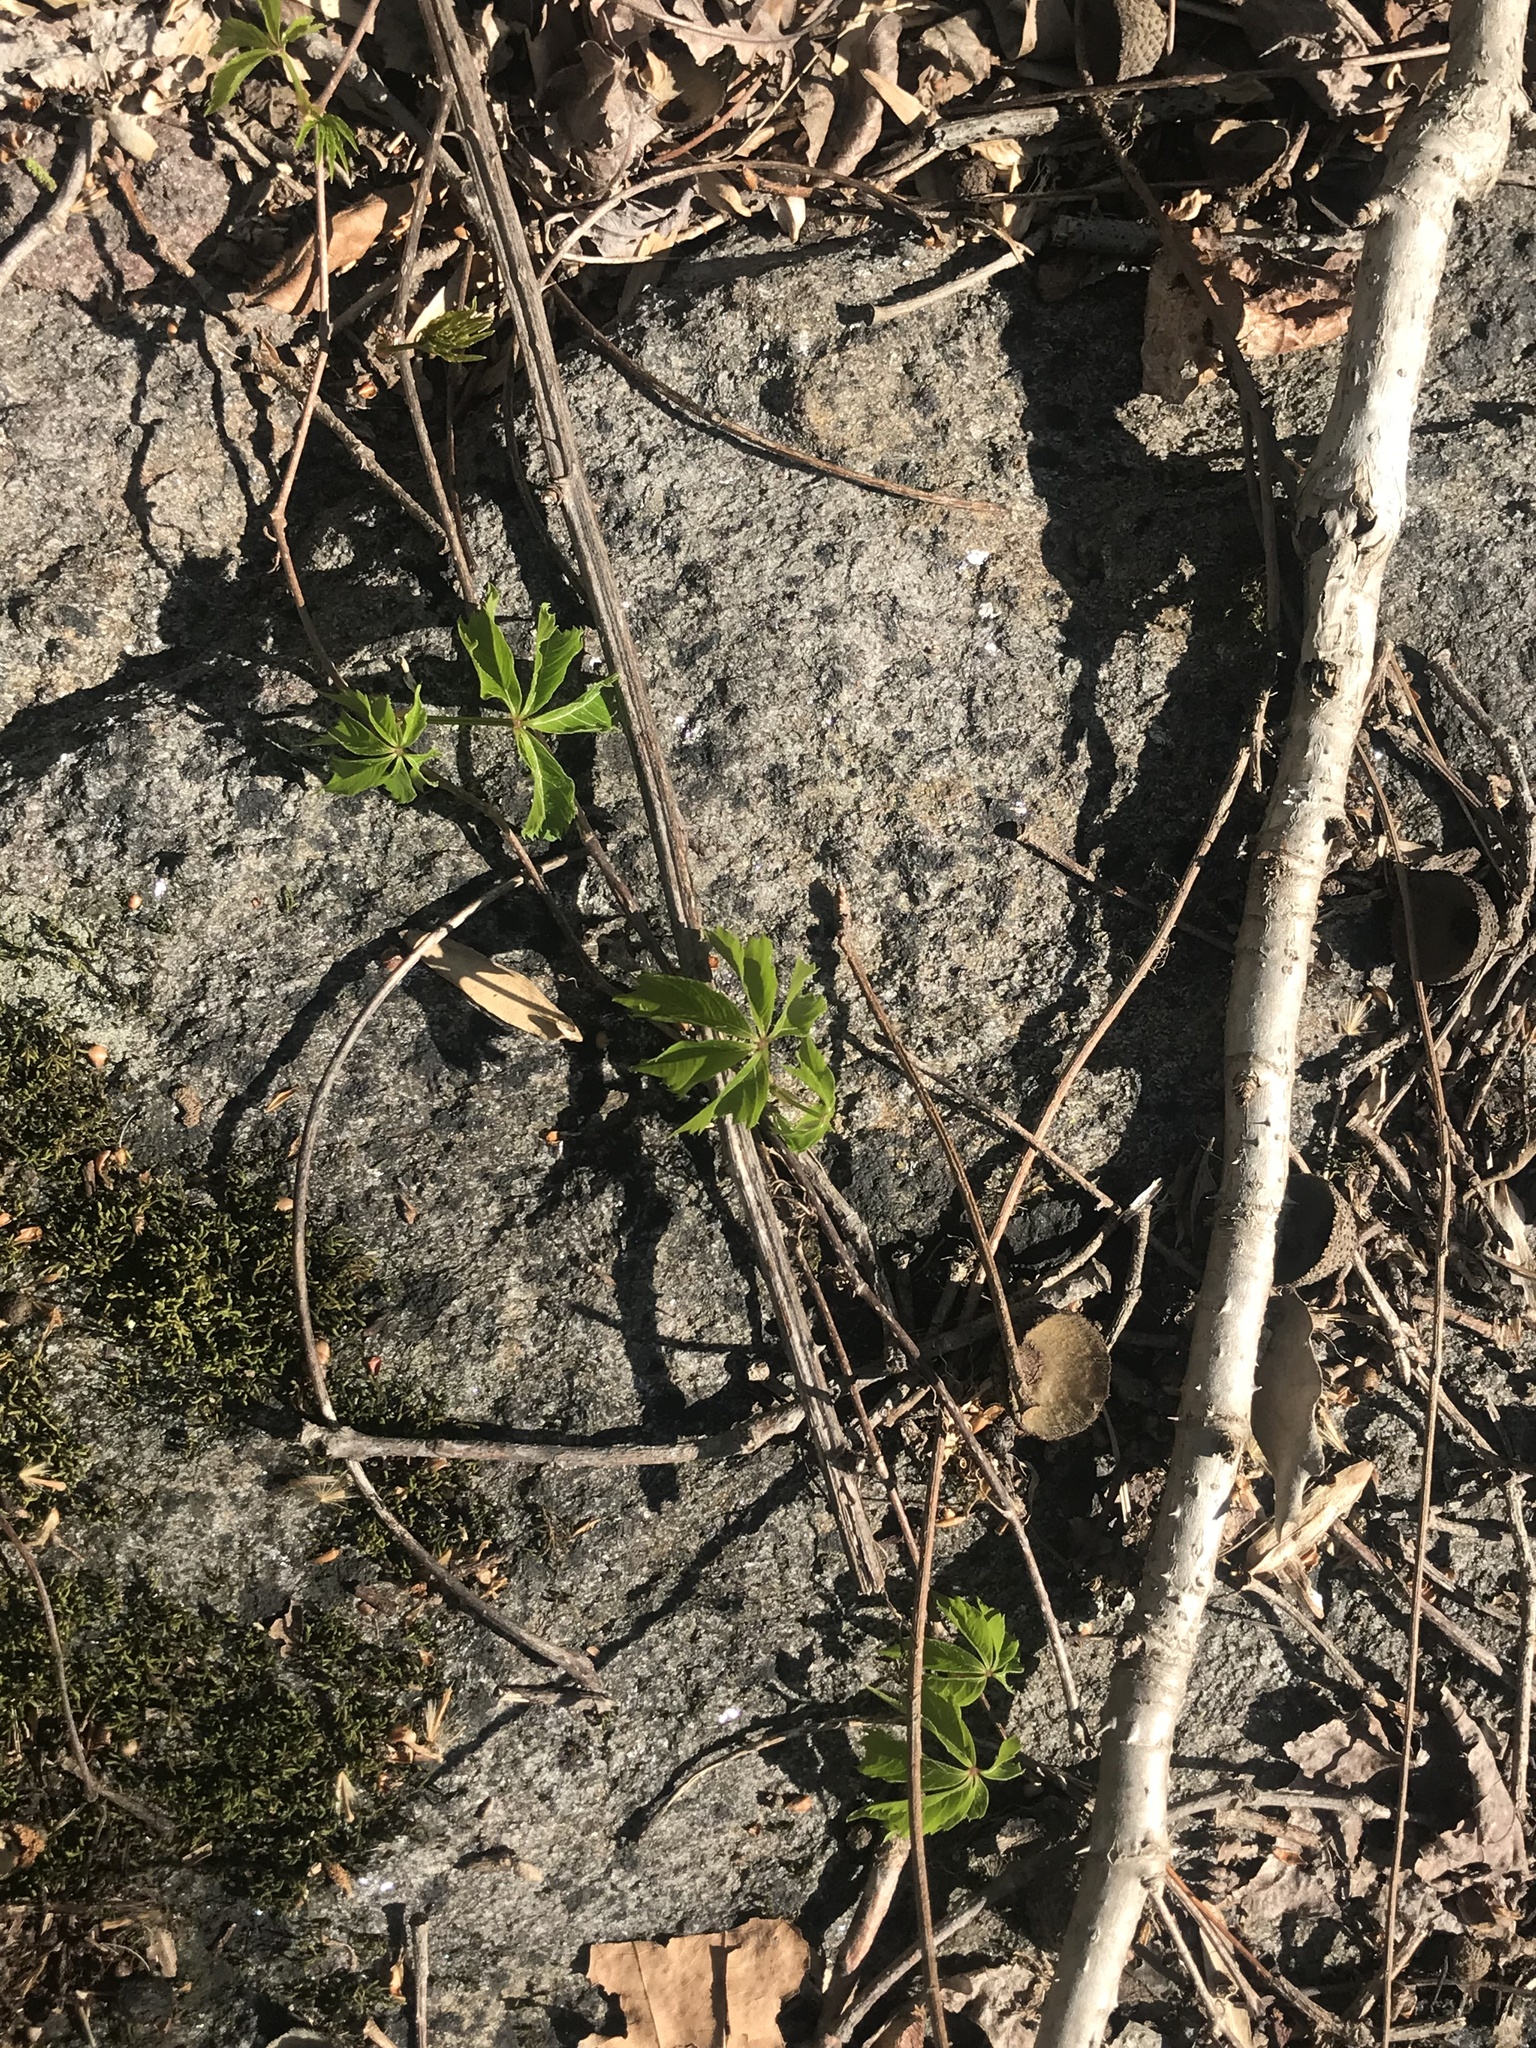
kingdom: Plantae
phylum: Tracheophyta
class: Magnoliopsida
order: Vitales
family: Vitaceae
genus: Parthenocissus
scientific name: Parthenocissus quinquefolia
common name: Virginia-creeper
